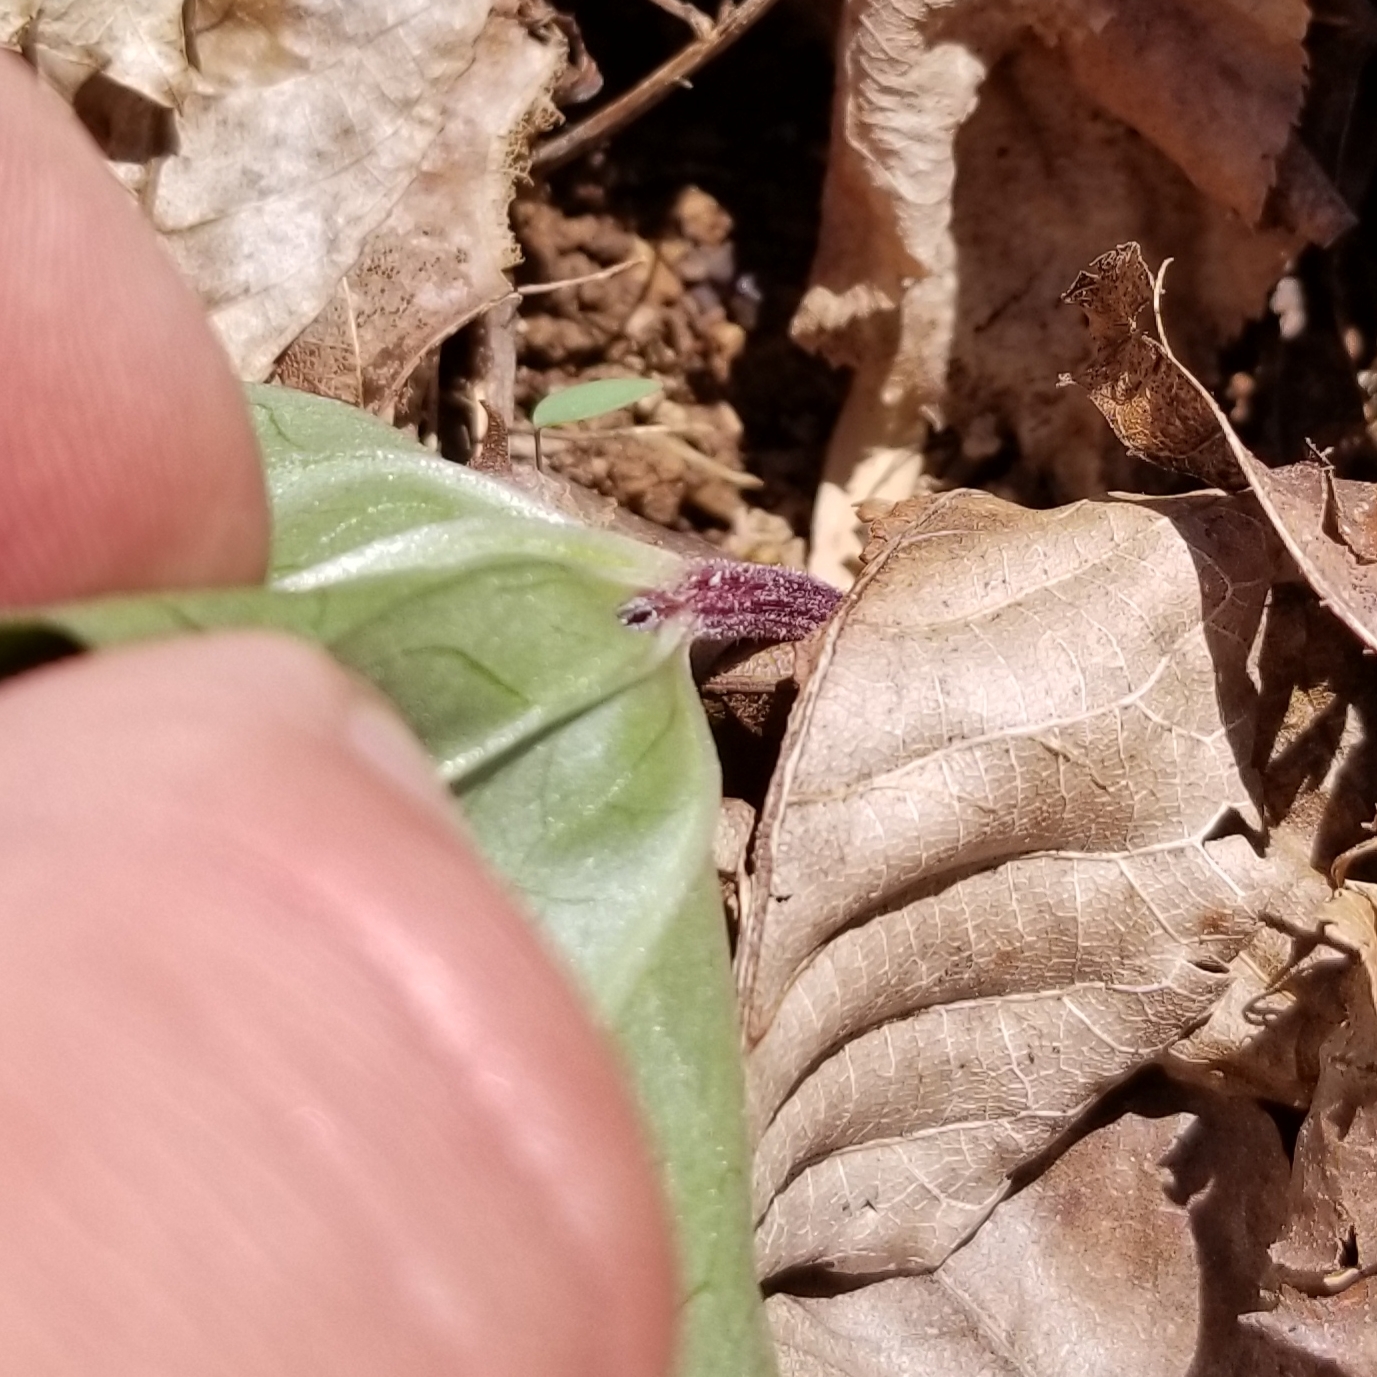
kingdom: Plantae
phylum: Tracheophyta
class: Liliopsida
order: Liliales
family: Melanthiaceae
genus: Trillium
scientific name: Trillium decumbens
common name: Decumbent trillium
